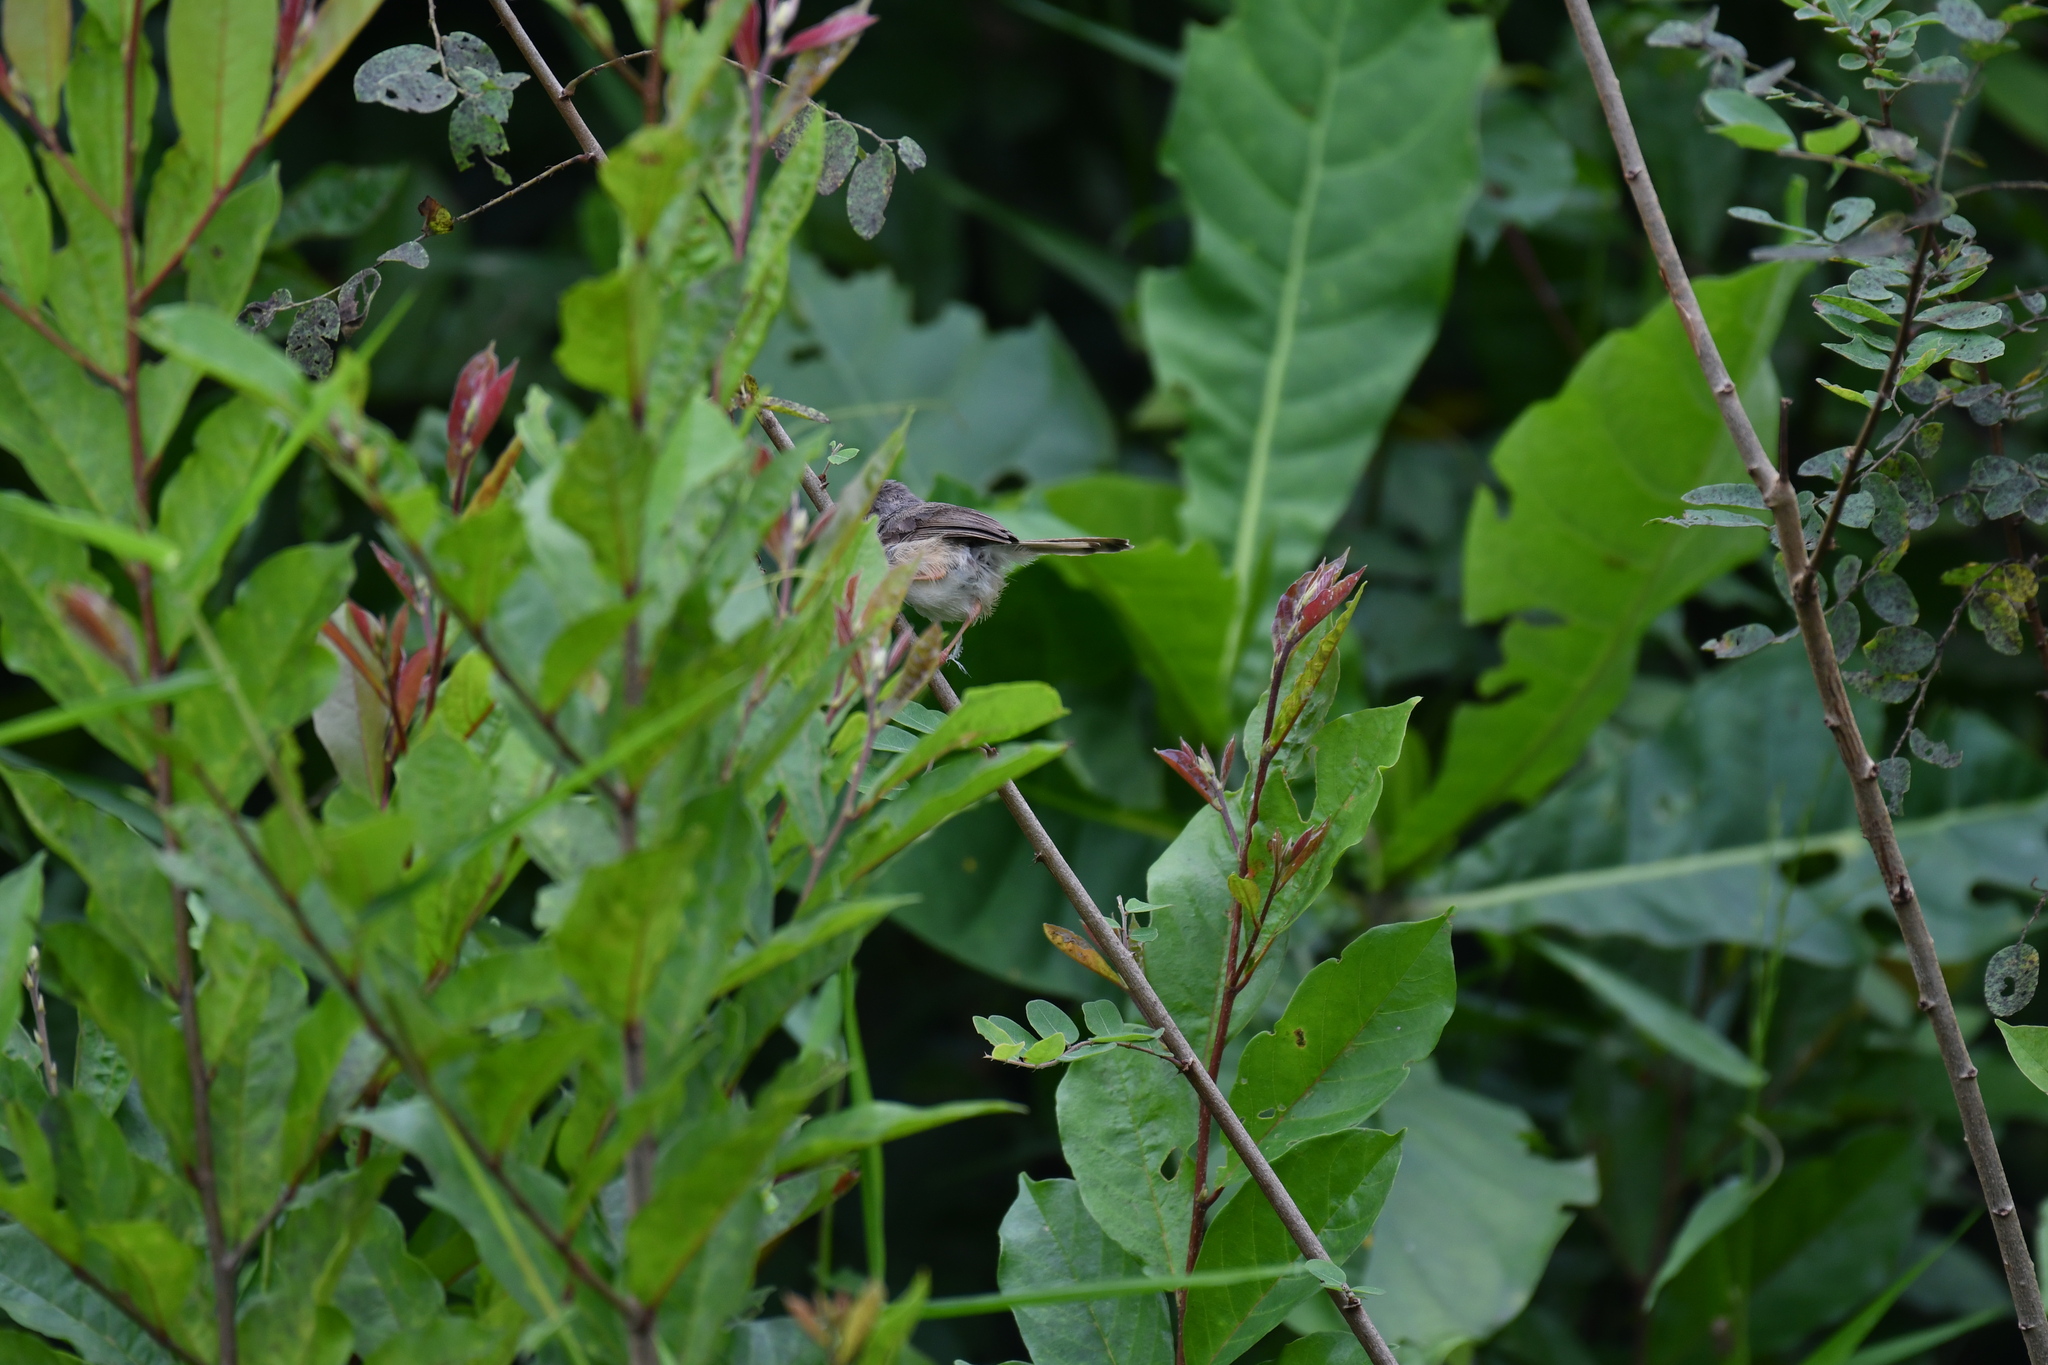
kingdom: Animalia
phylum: Chordata
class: Aves
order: Passeriformes
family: Cisticolidae
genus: Prinia
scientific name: Prinia subflava
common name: Tawny-flanked prinia
